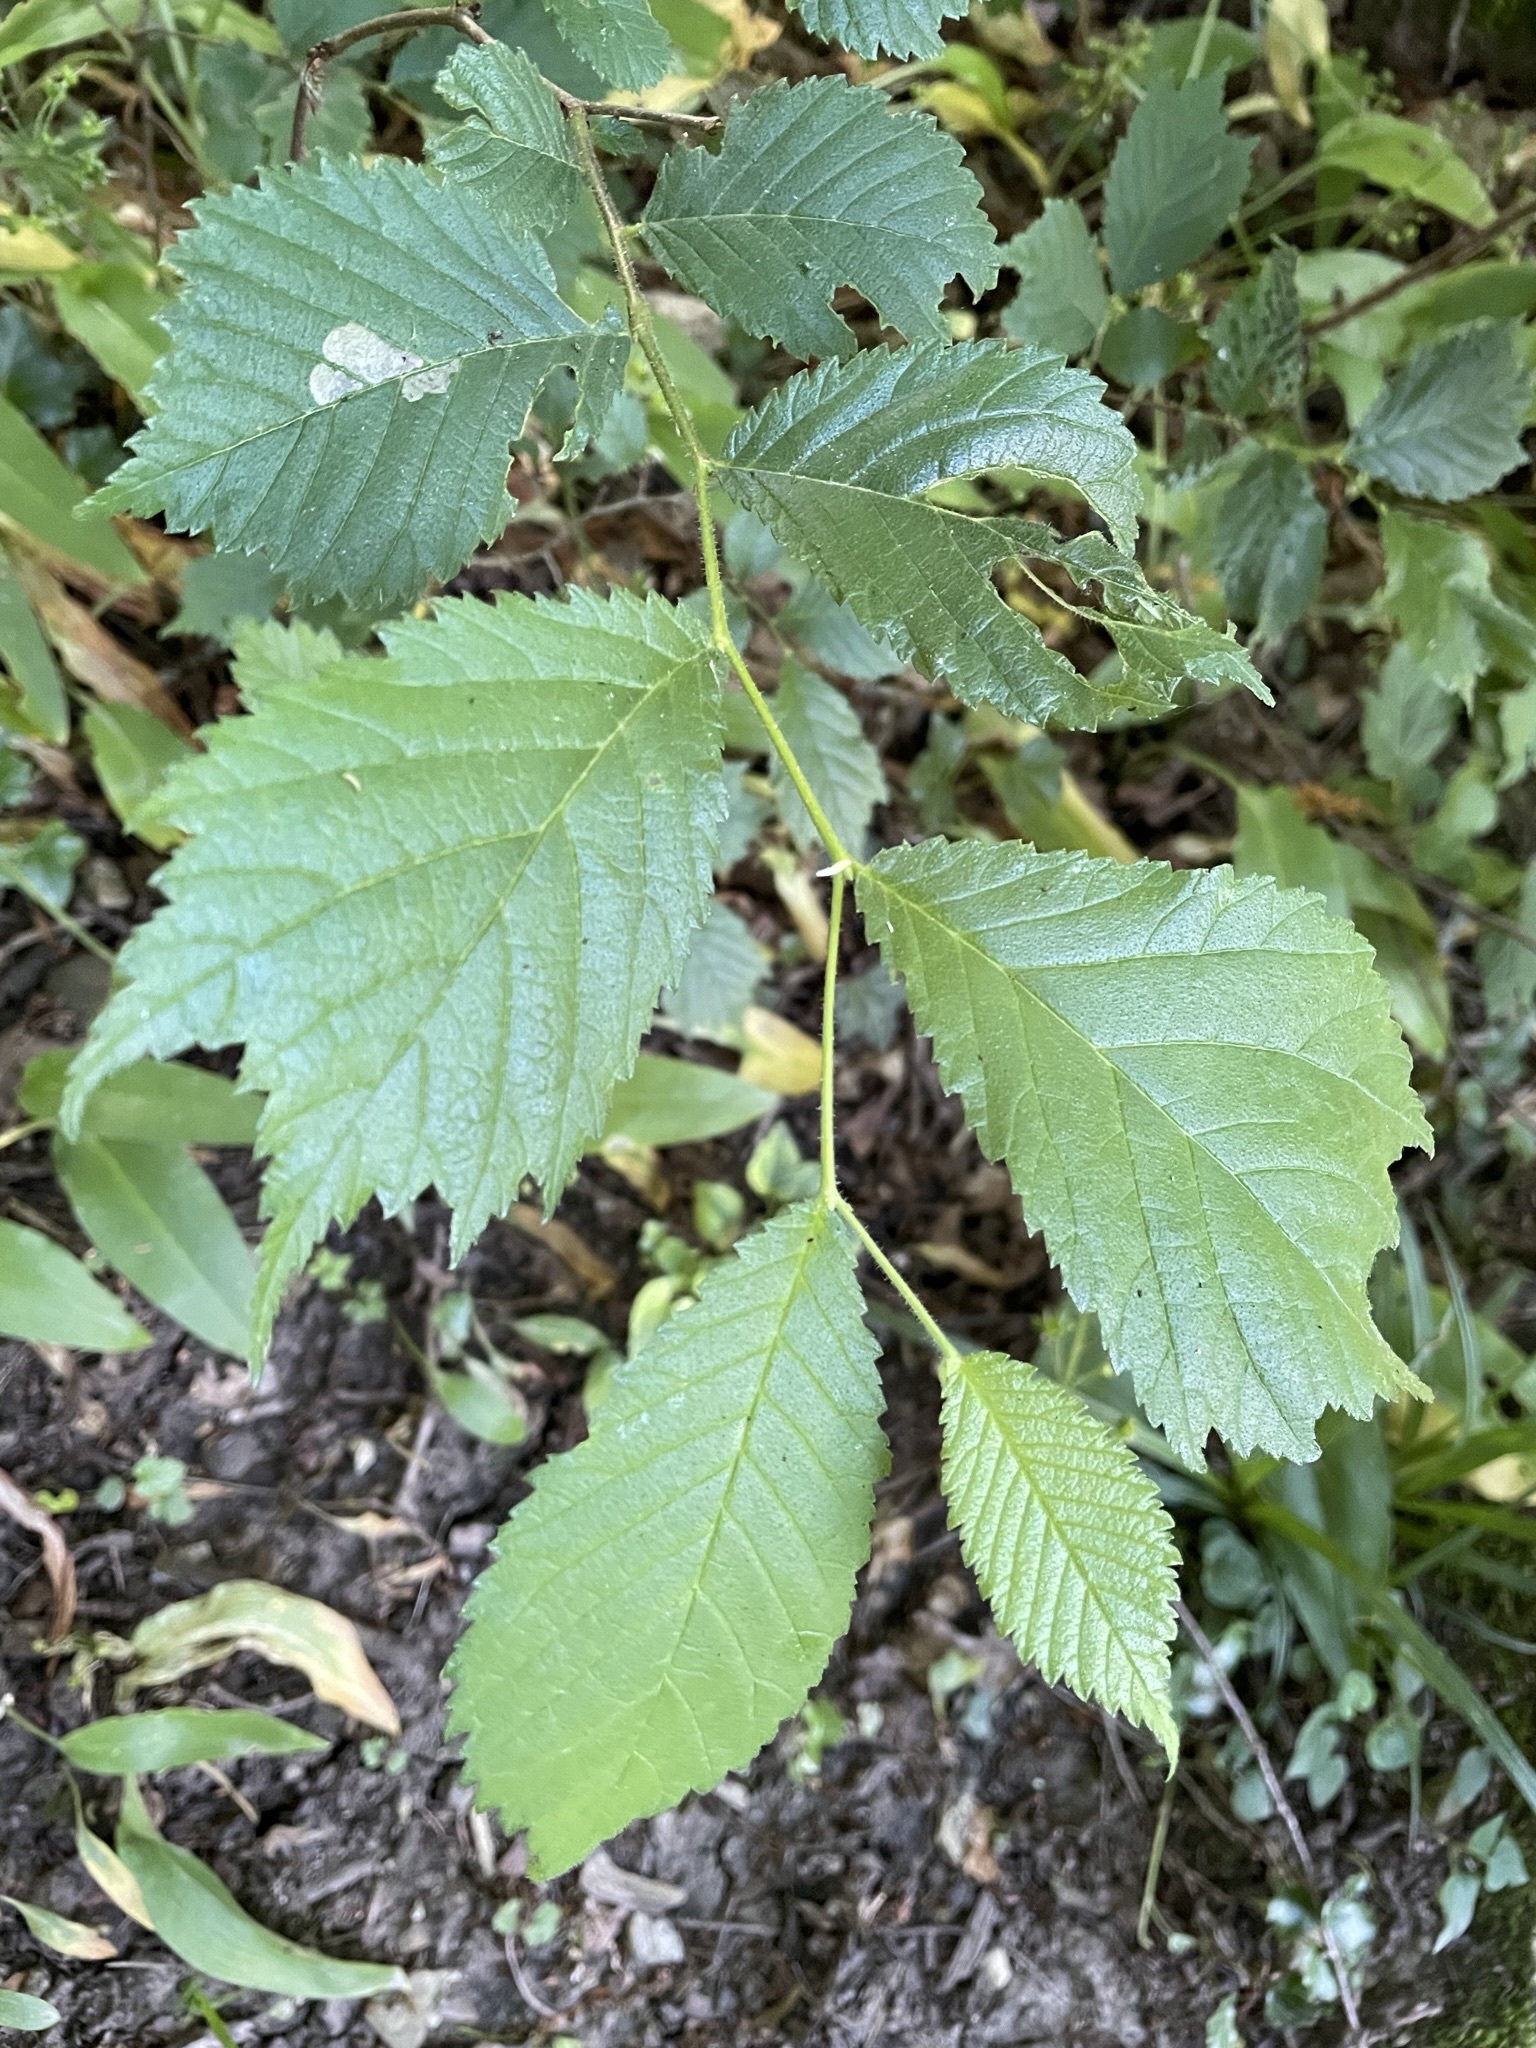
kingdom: Plantae
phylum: Tracheophyta
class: Magnoliopsida
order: Rosales
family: Ulmaceae
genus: Ulmus
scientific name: Ulmus glabra
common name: Wych elm
